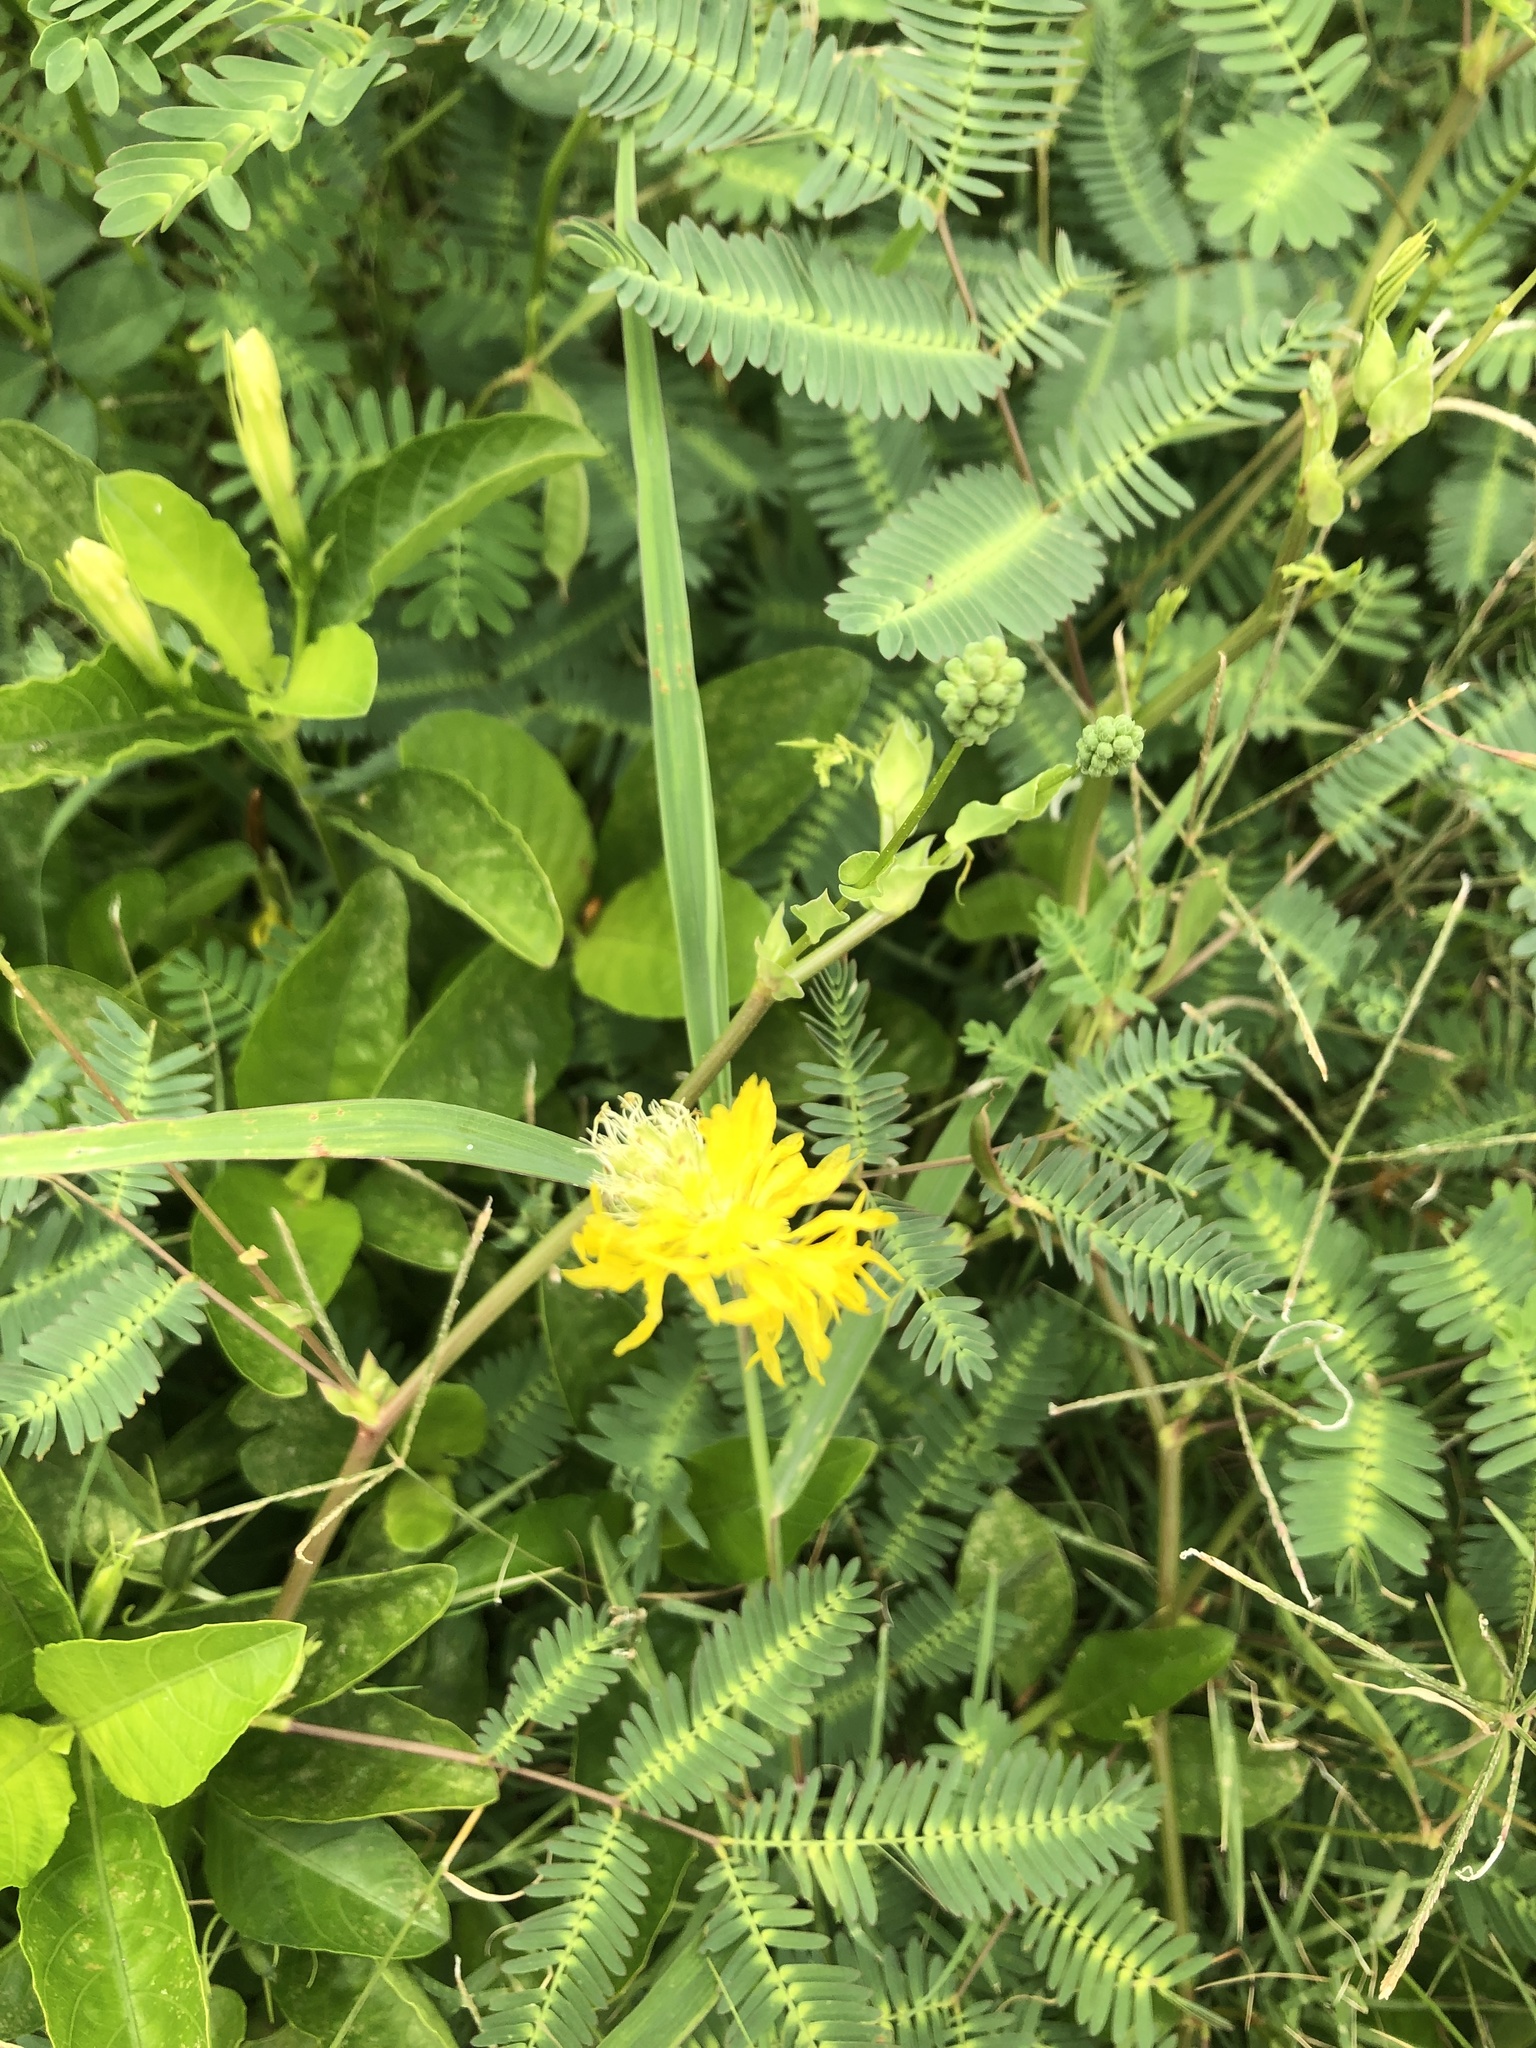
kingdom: Plantae
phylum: Tracheophyta
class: Magnoliopsida
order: Fabales
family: Fabaceae
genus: Neptunia
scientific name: Neptunia prostrata
